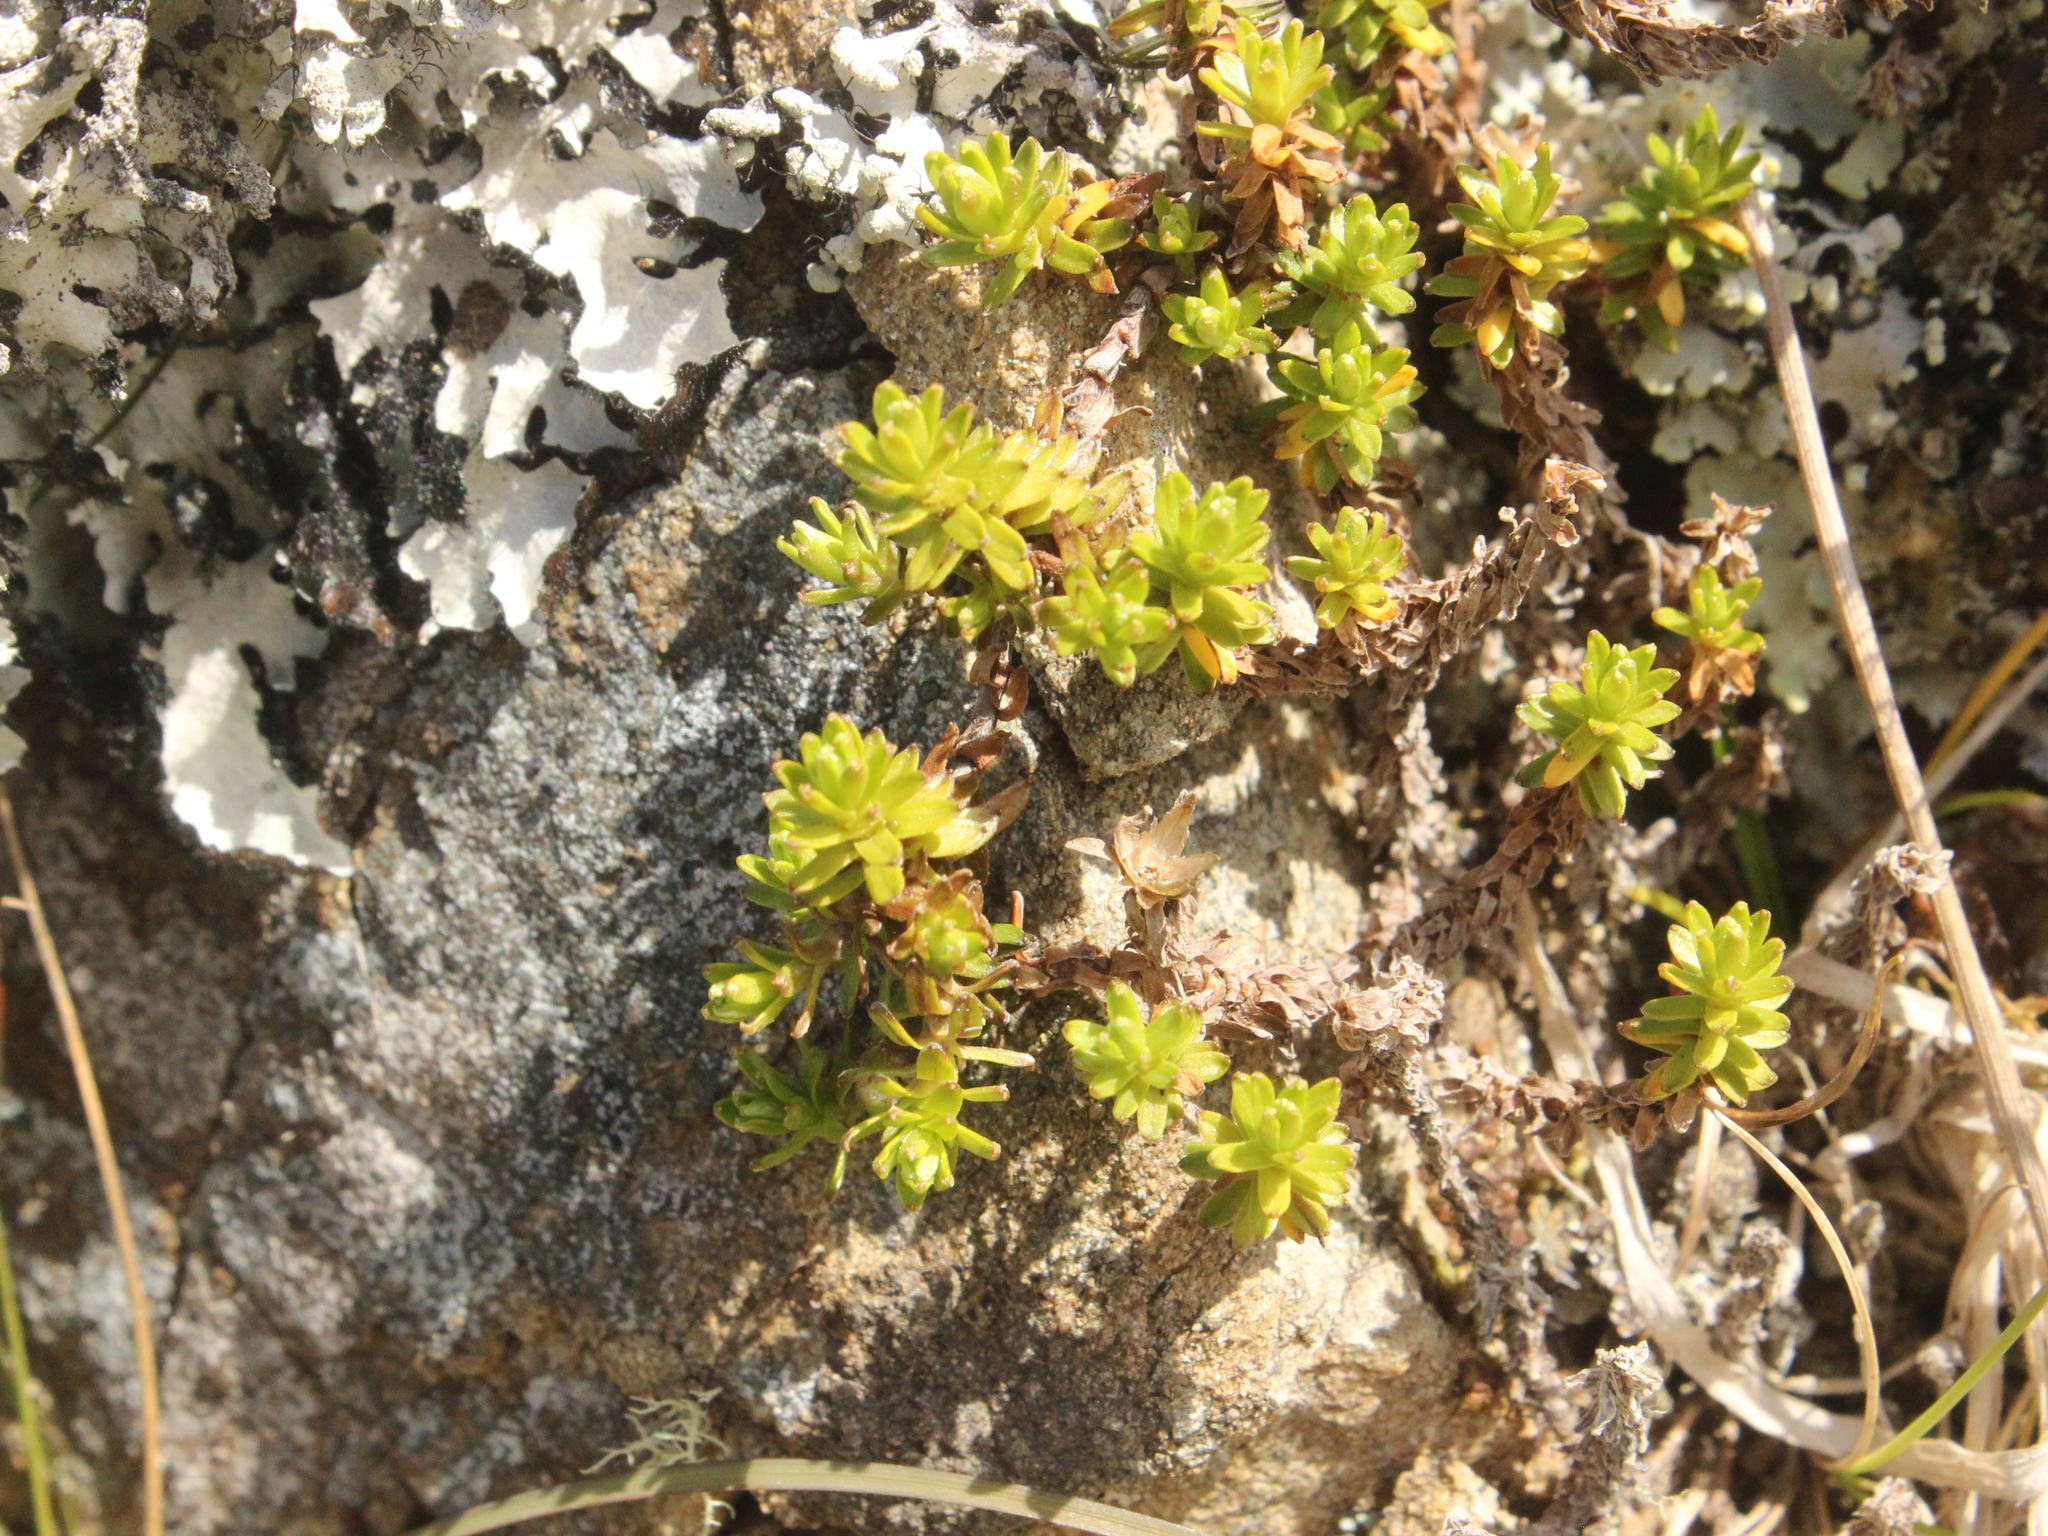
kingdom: Plantae
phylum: Tracheophyta
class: Magnoliopsida
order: Asterales
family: Asteraceae
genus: Raoulia
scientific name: Raoulia glabra
